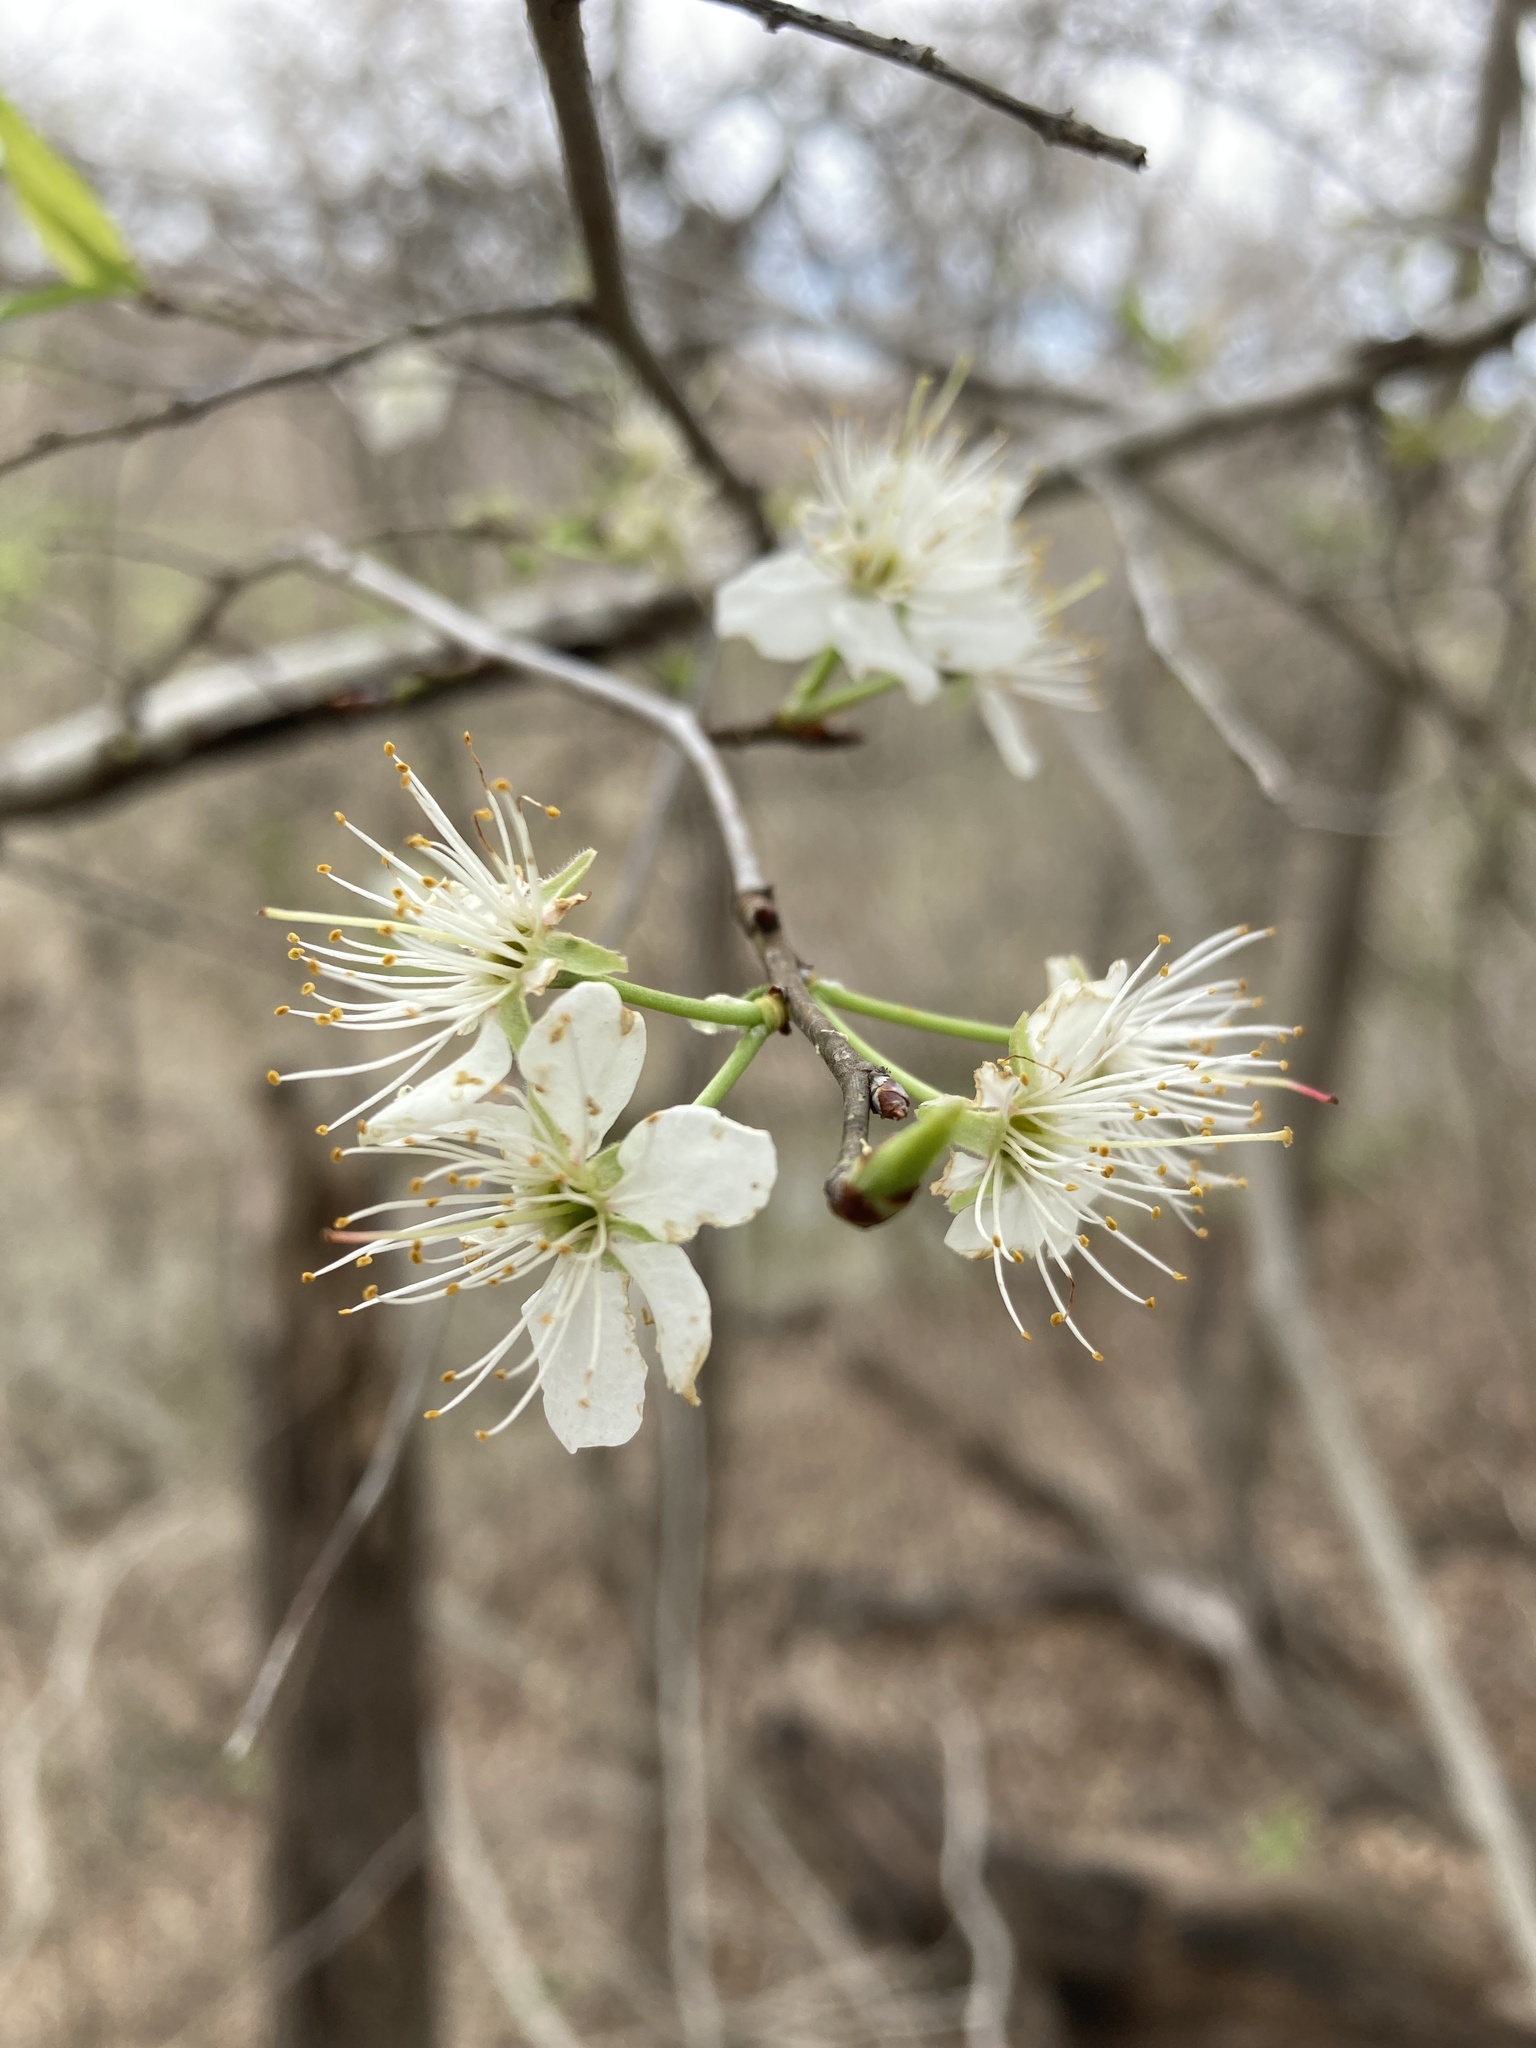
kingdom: Plantae
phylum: Tracheophyta
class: Magnoliopsida
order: Rosales
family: Rosaceae
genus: Prunus
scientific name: Prunus mexicana
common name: Mexican plum
